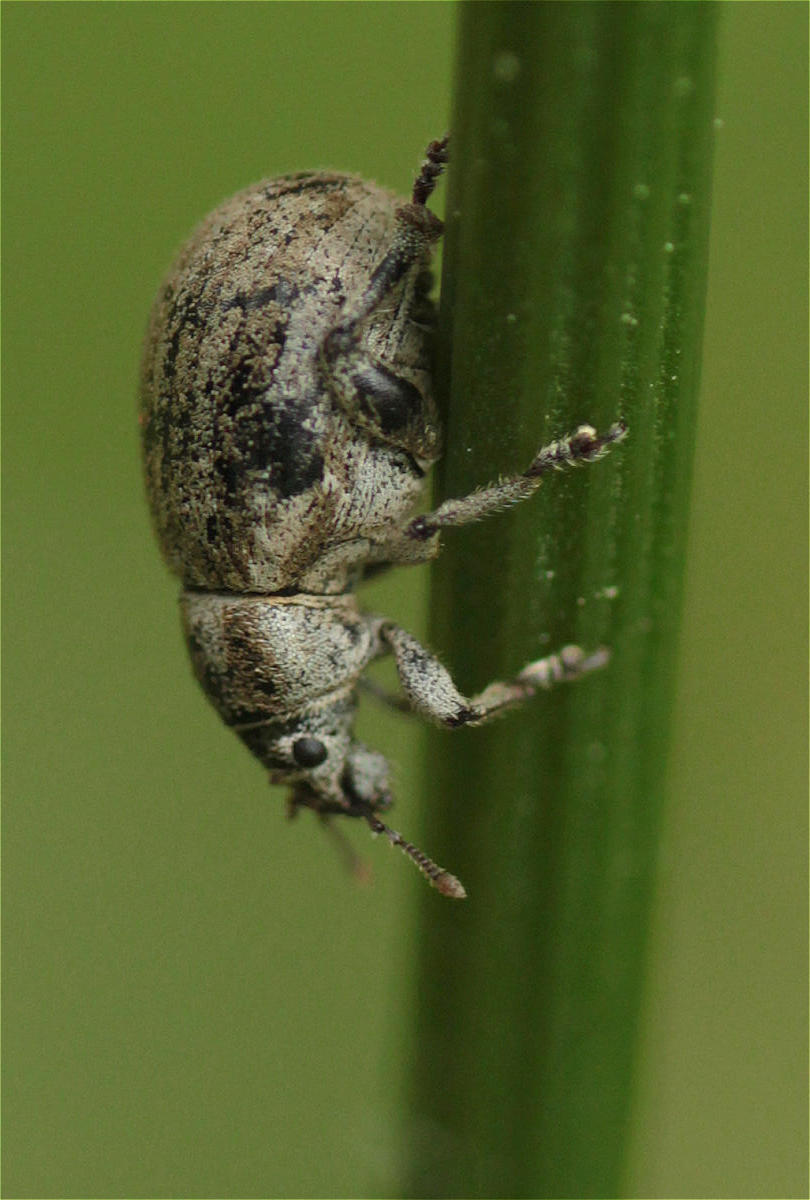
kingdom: Animalia
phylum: Arthropoda
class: Insecta
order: Coleoptera
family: Curculionidae
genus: Philopedon
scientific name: Philopedon plagiatum
